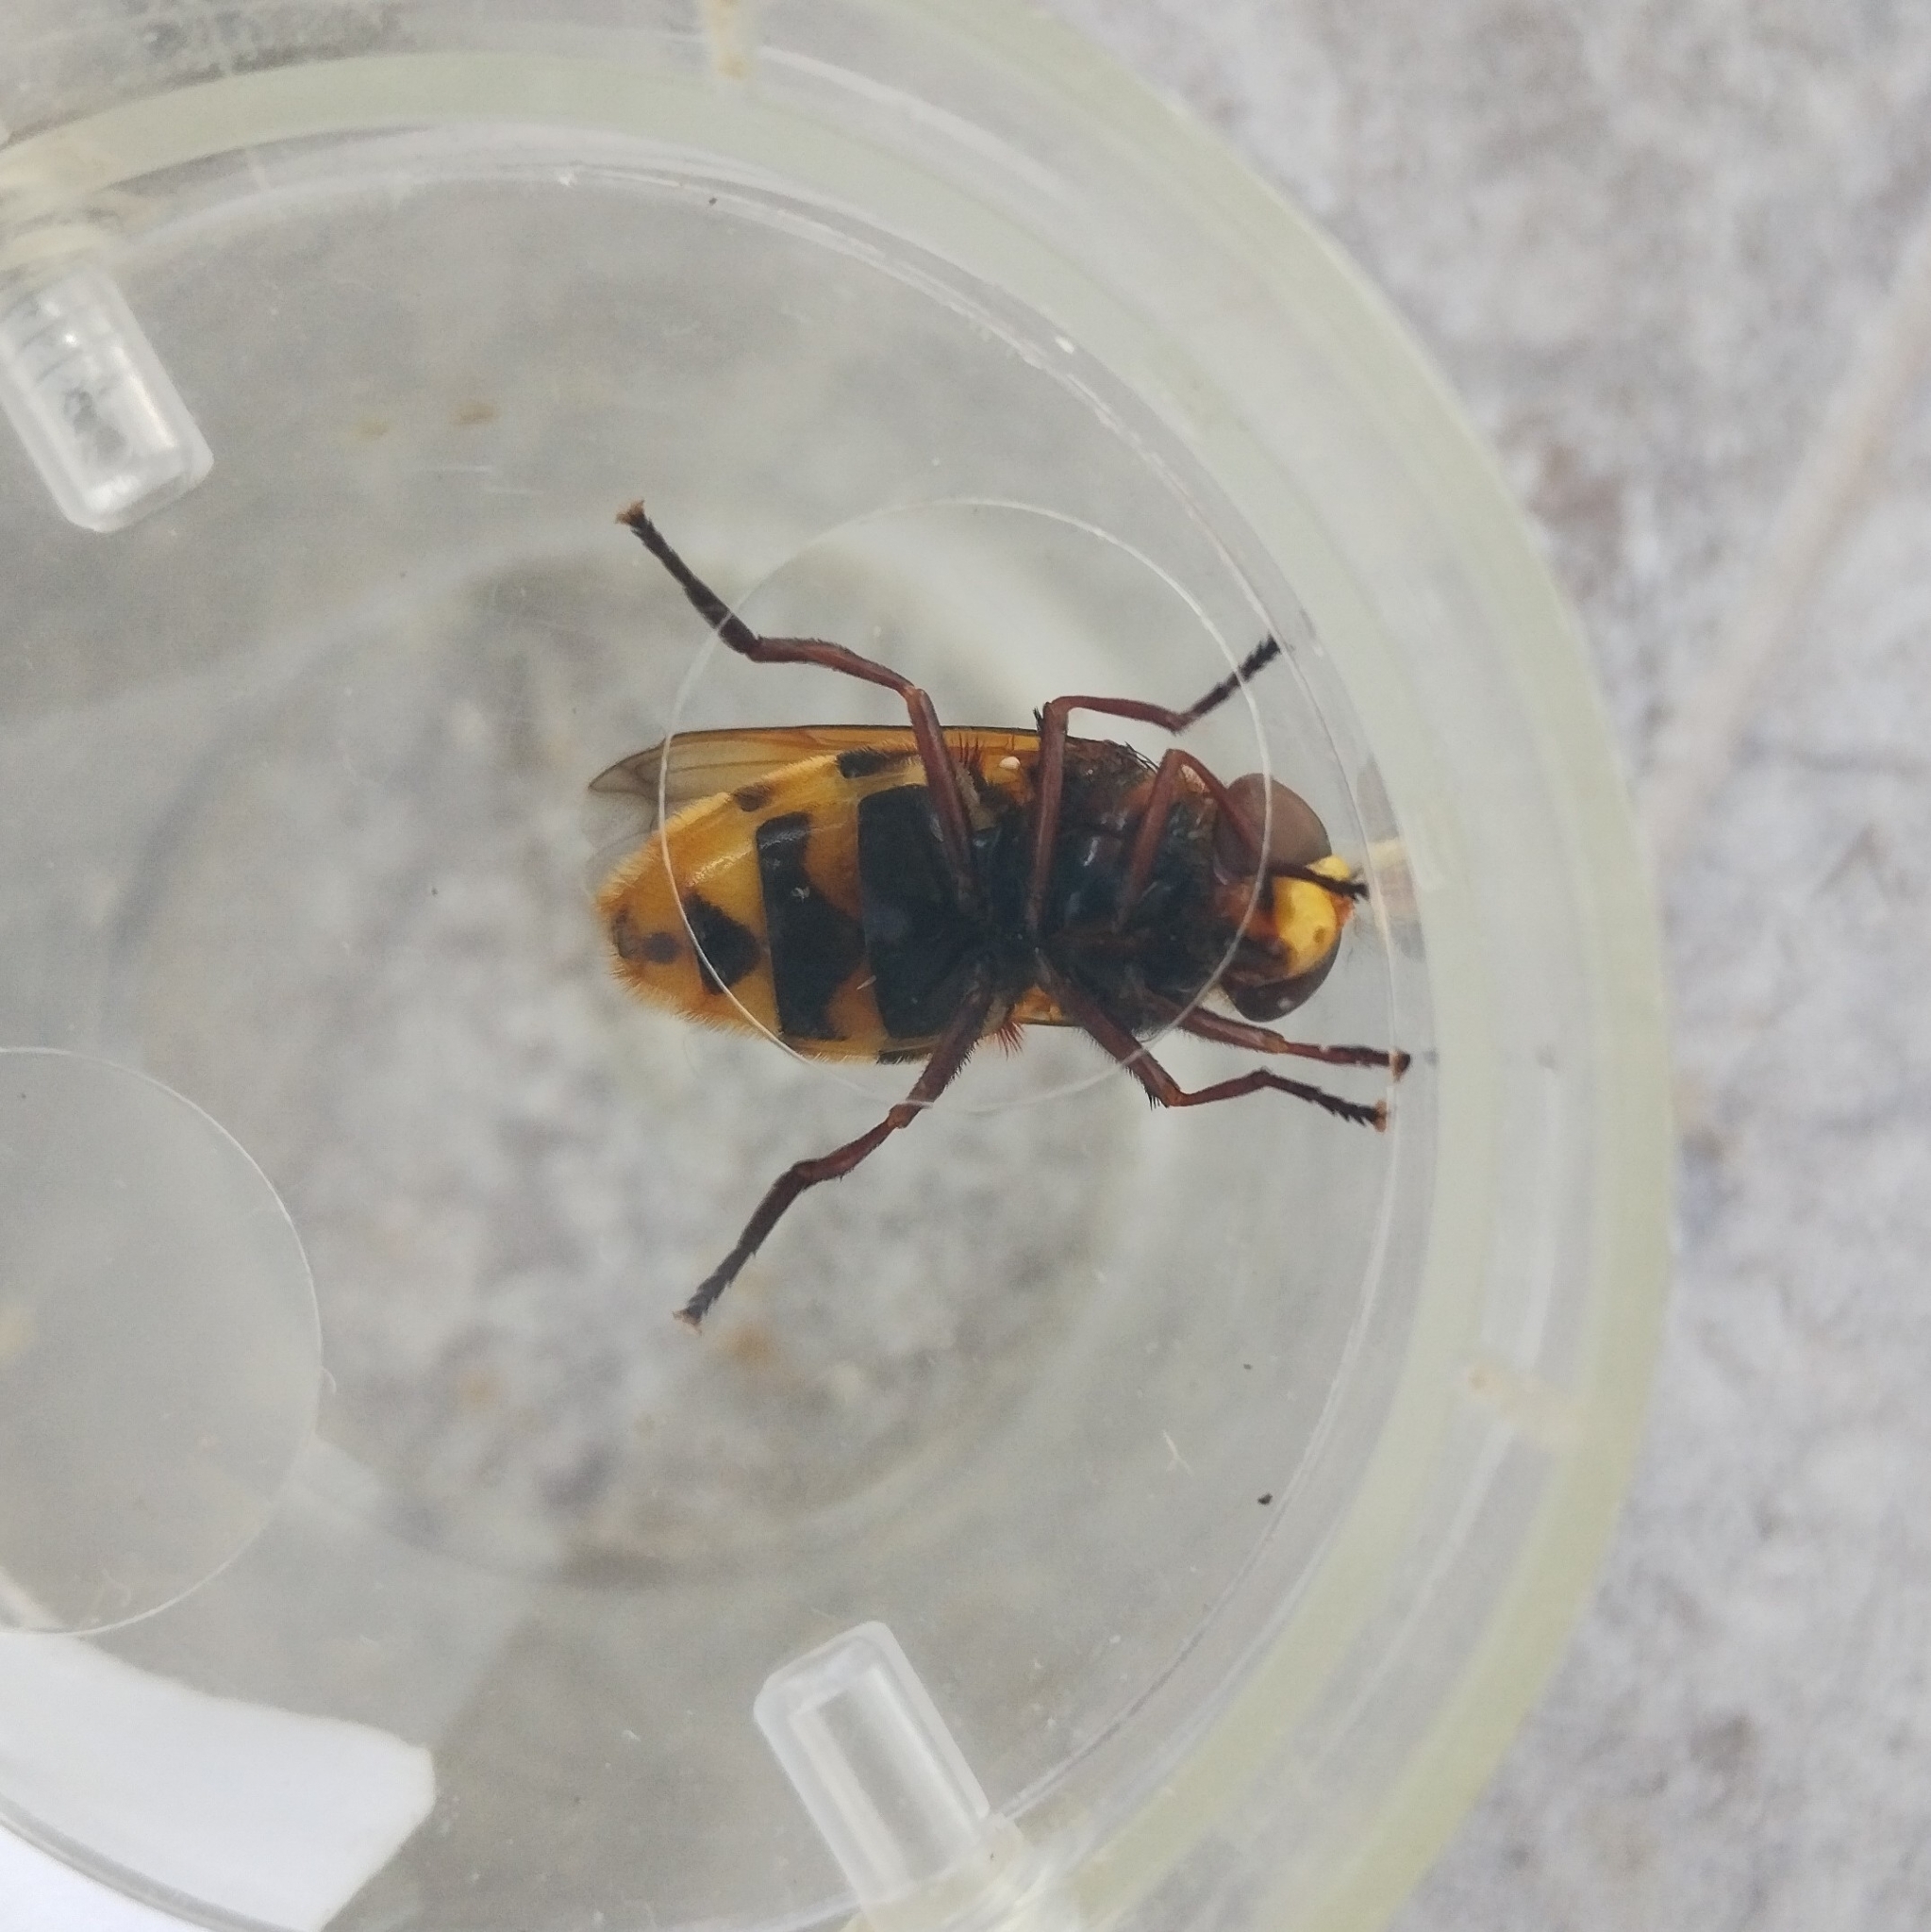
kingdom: Animalia
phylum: Arthropoda
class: Insecta
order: Diptera
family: Syrphidae
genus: Volucella
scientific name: Volucella zonaria
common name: Hornet hoverfly
